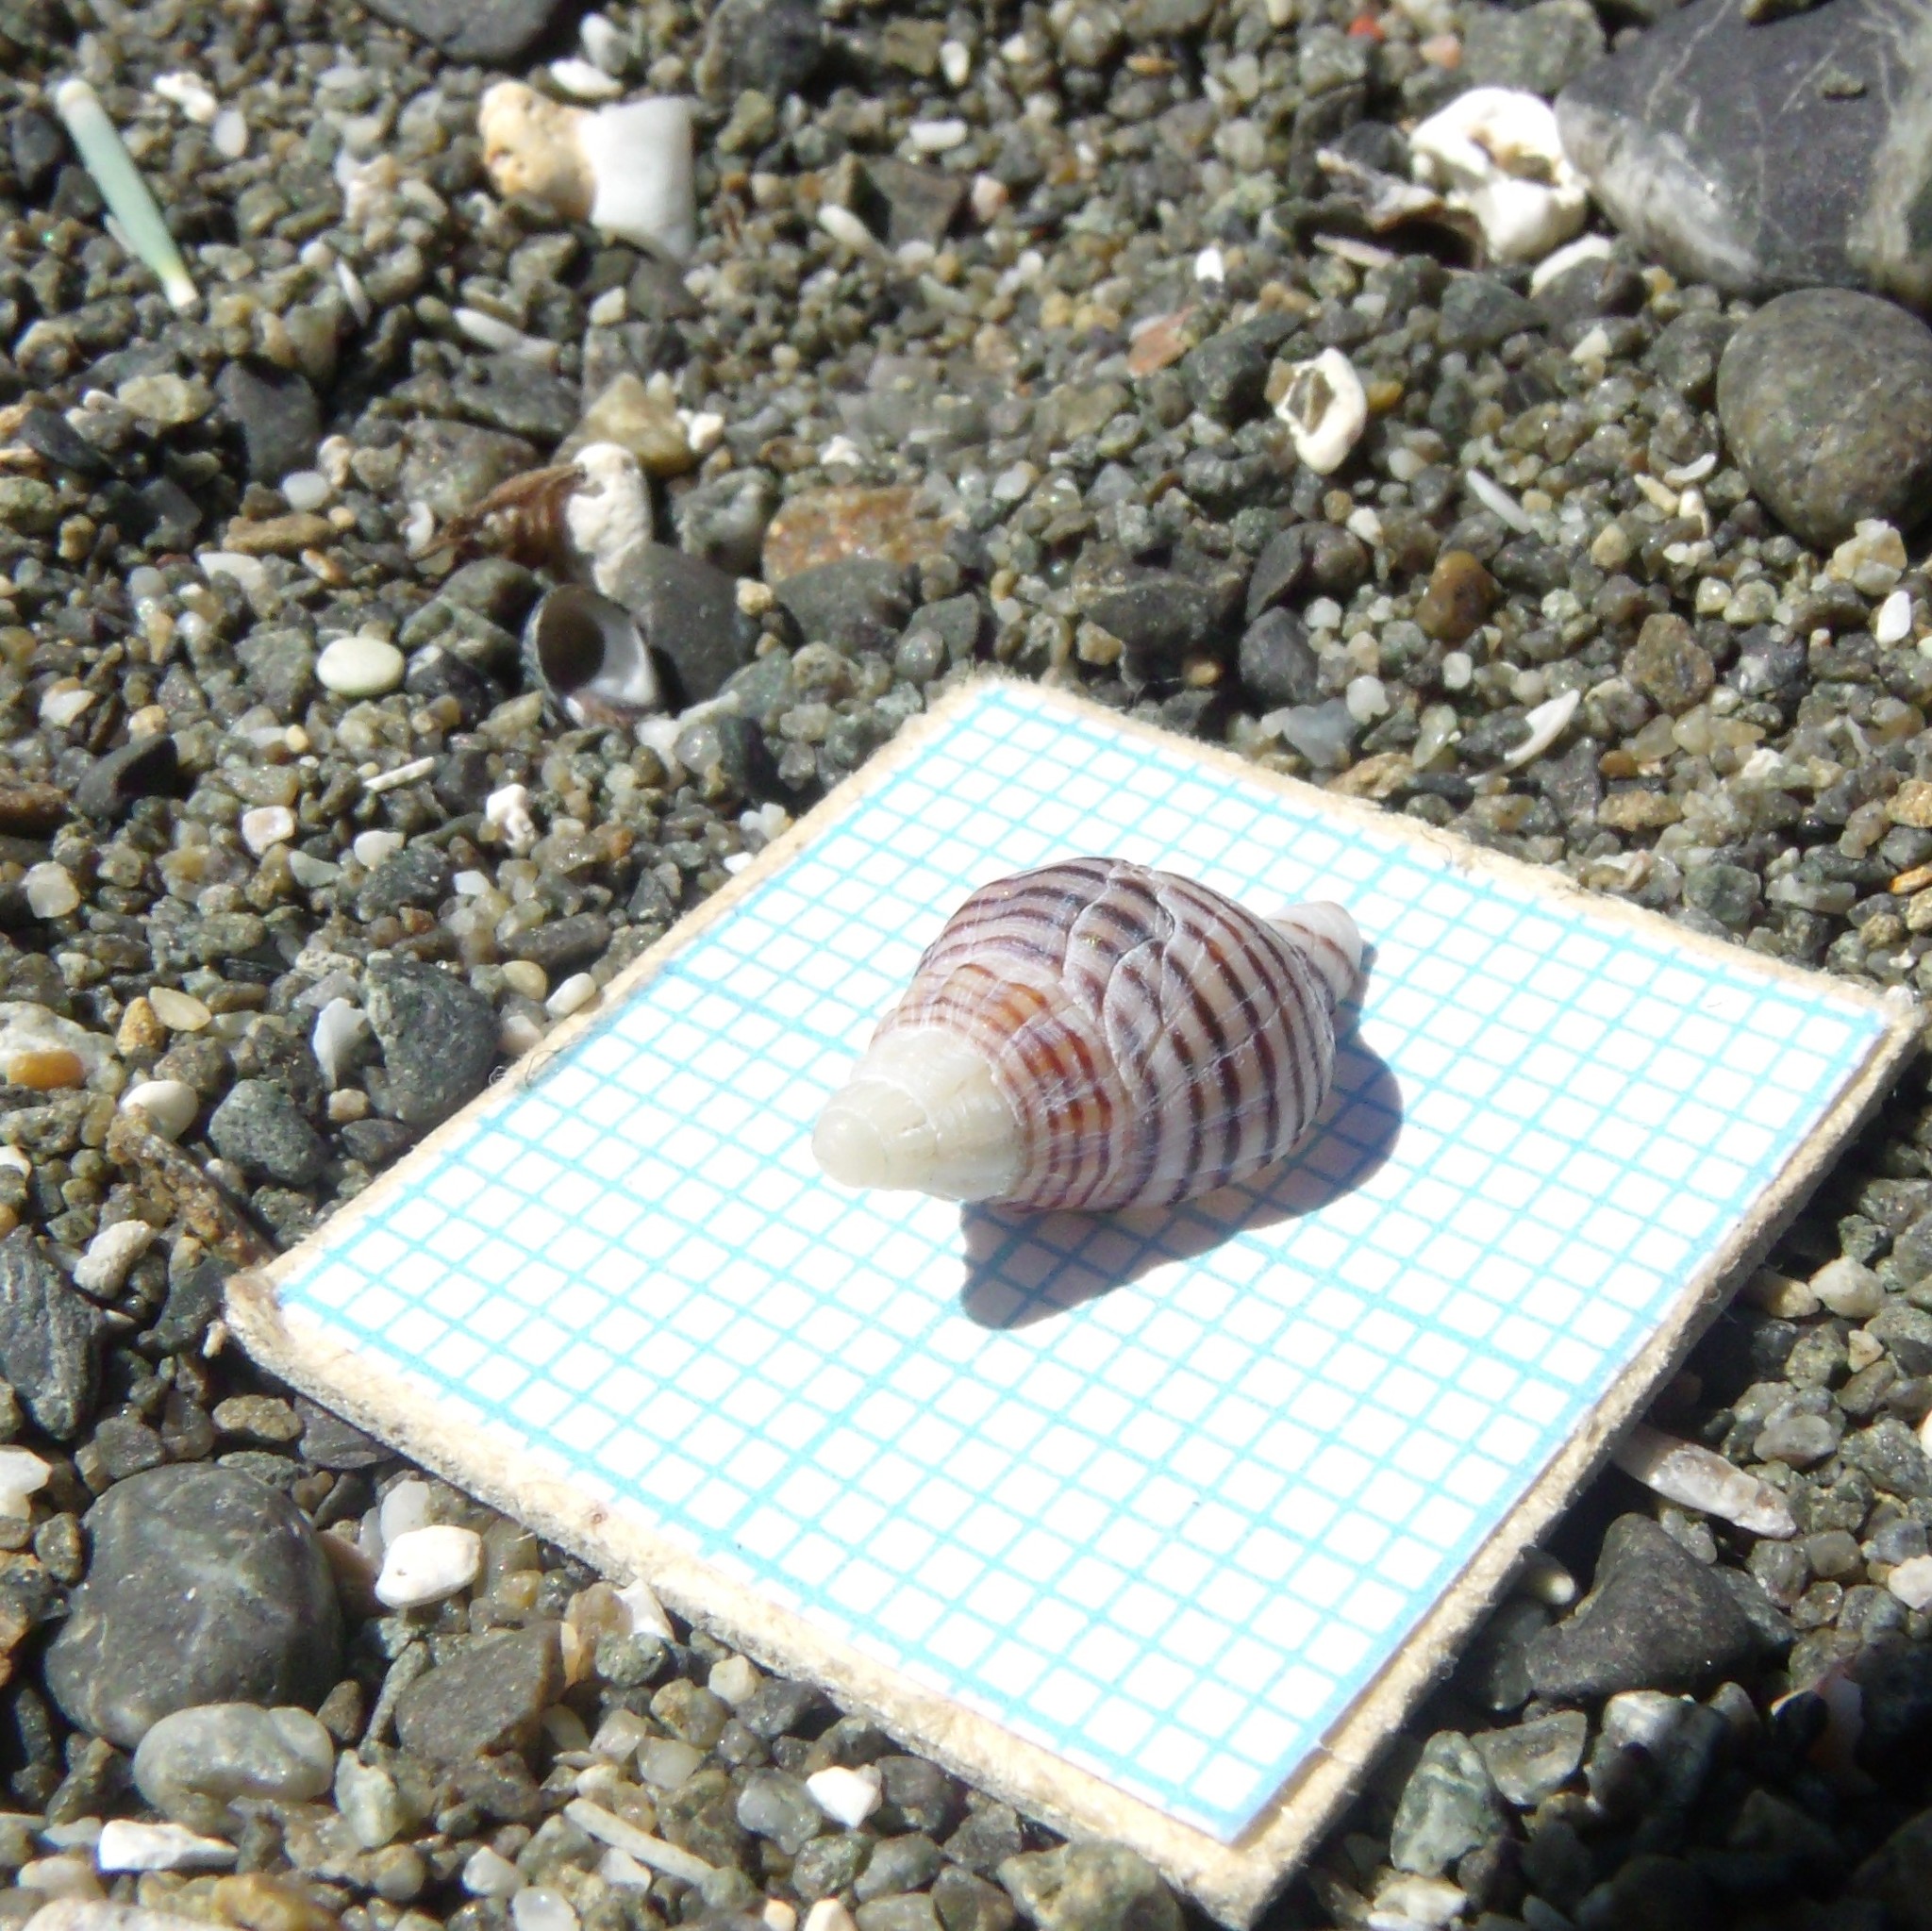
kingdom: Animalia
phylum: Mollusca
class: Gastropoda
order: Neogastropoda
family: Tudiclidae
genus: Buccinulum
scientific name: Buccinulum linea
